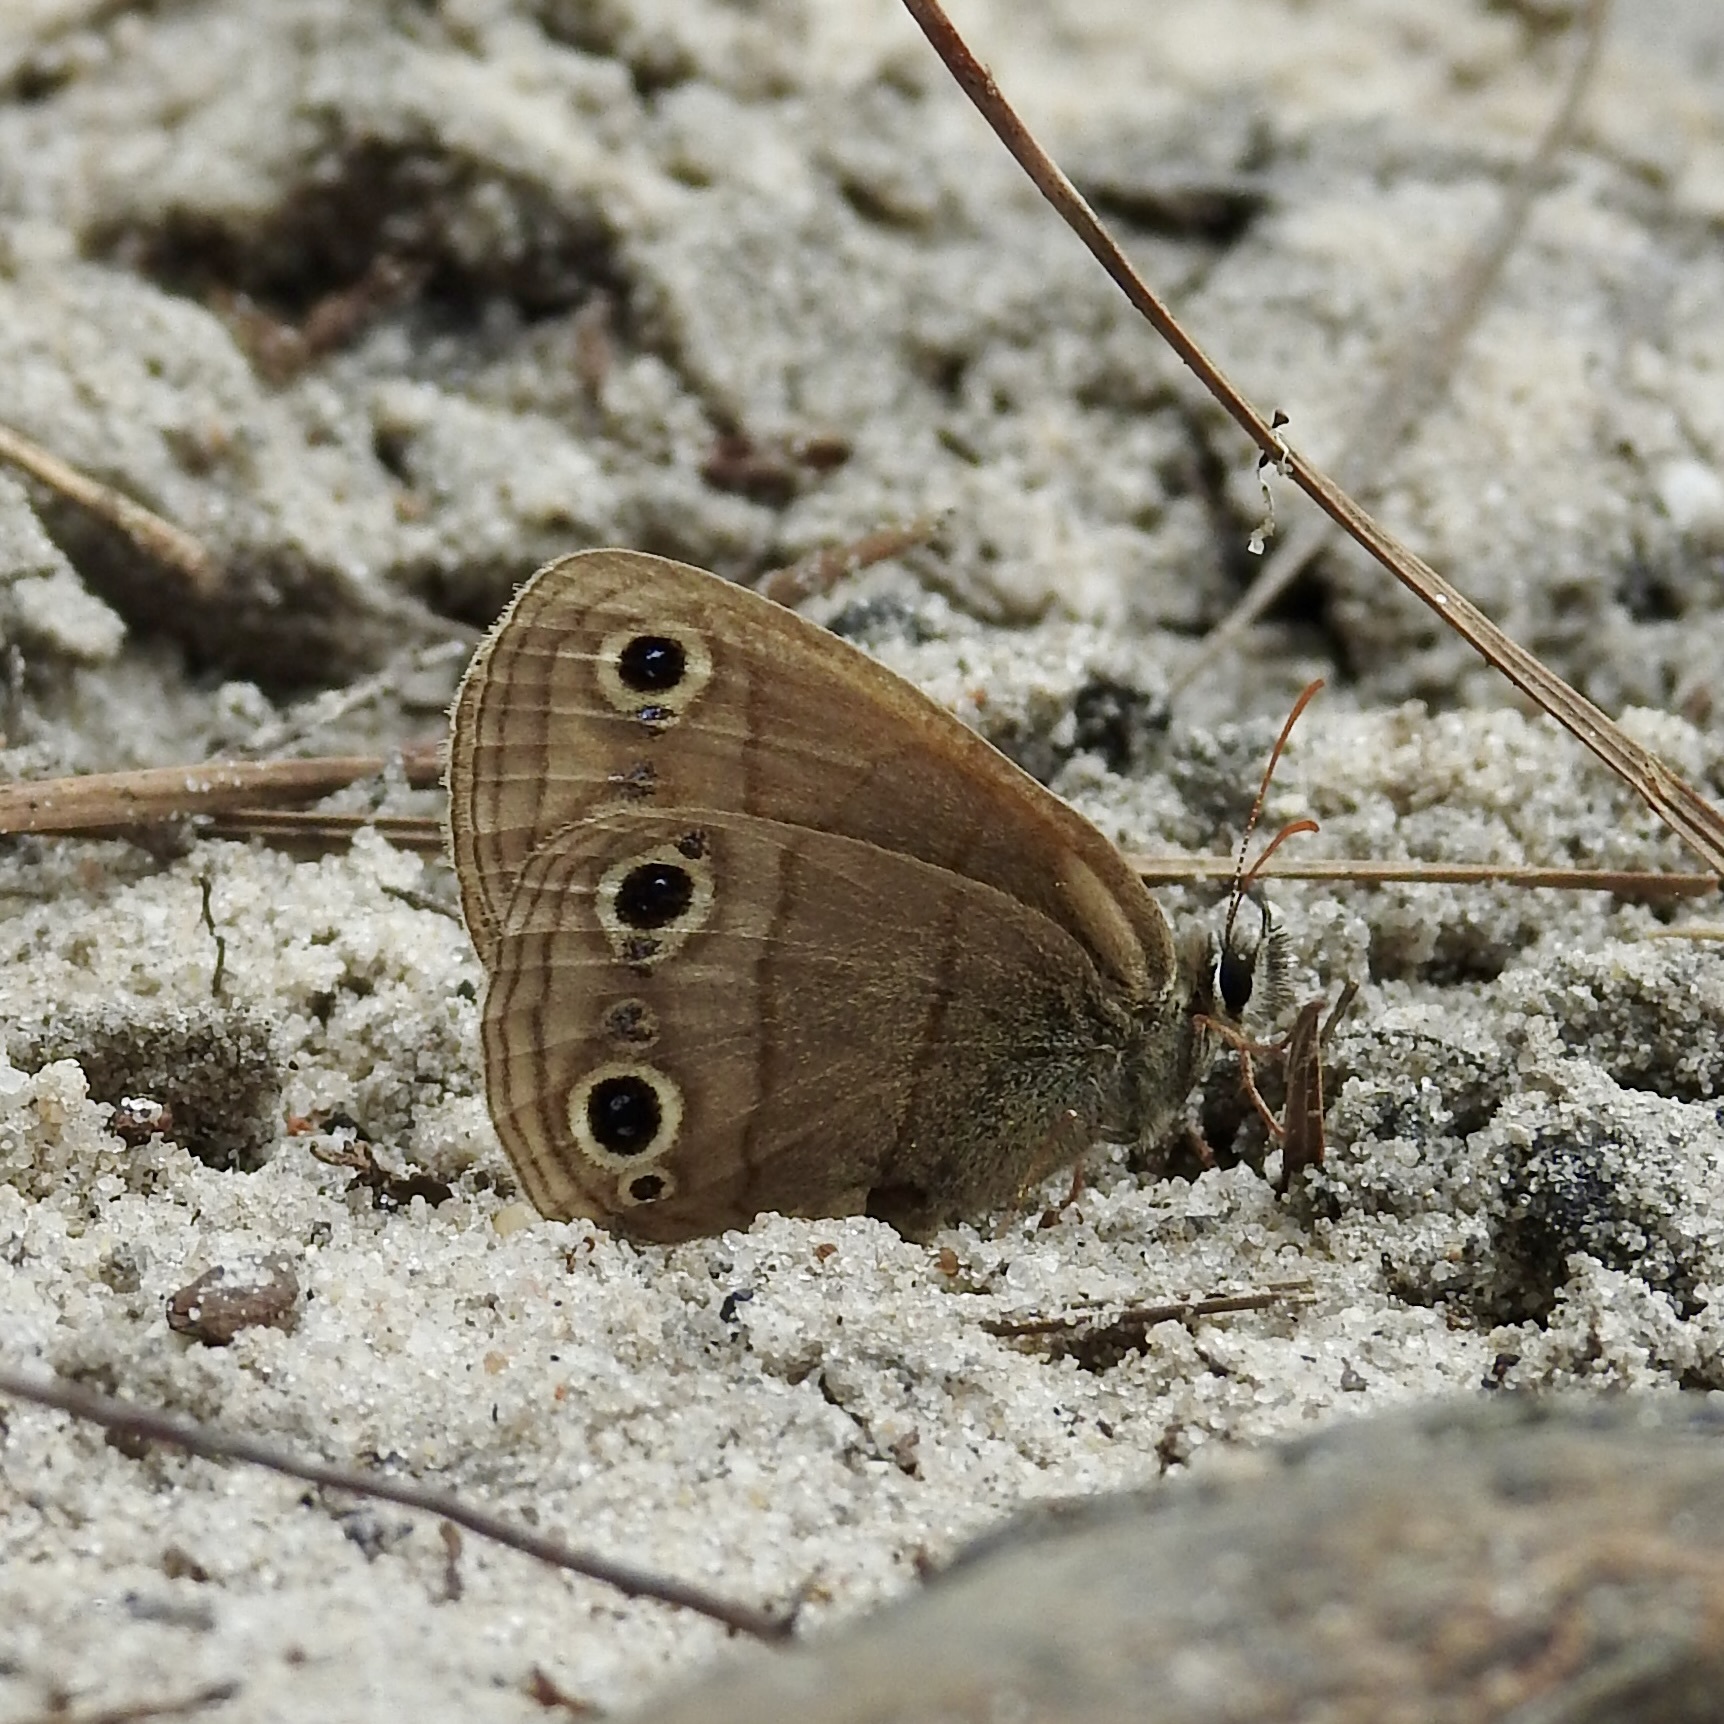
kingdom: Animalia
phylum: Arthropoda
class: Insecta
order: Lepidoptera
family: Nymphalidae
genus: Euptychia
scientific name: Euptychia cymela
